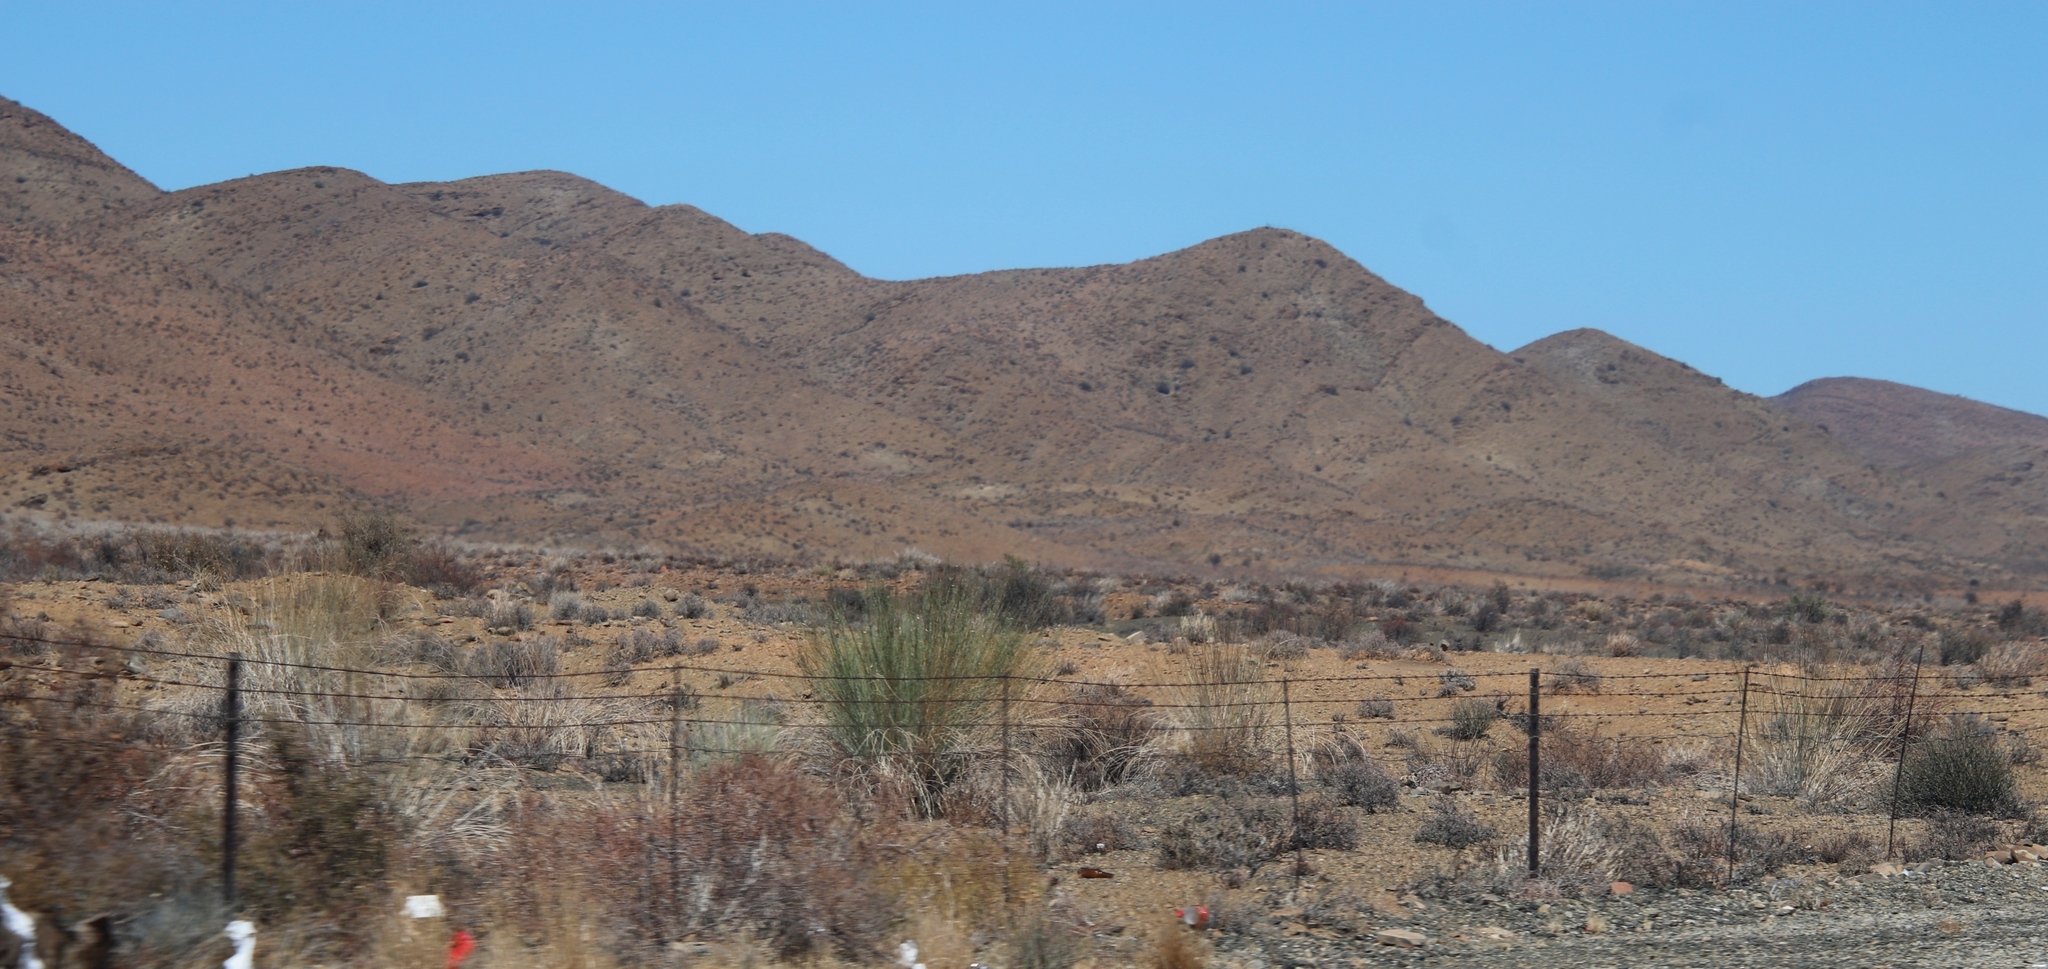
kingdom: Plantae
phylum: Tracheophyta
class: Magnoliopsida
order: Gentianales
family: Apocynaceae
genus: Gomphocarpus
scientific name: Gomphocarpus filiformis
